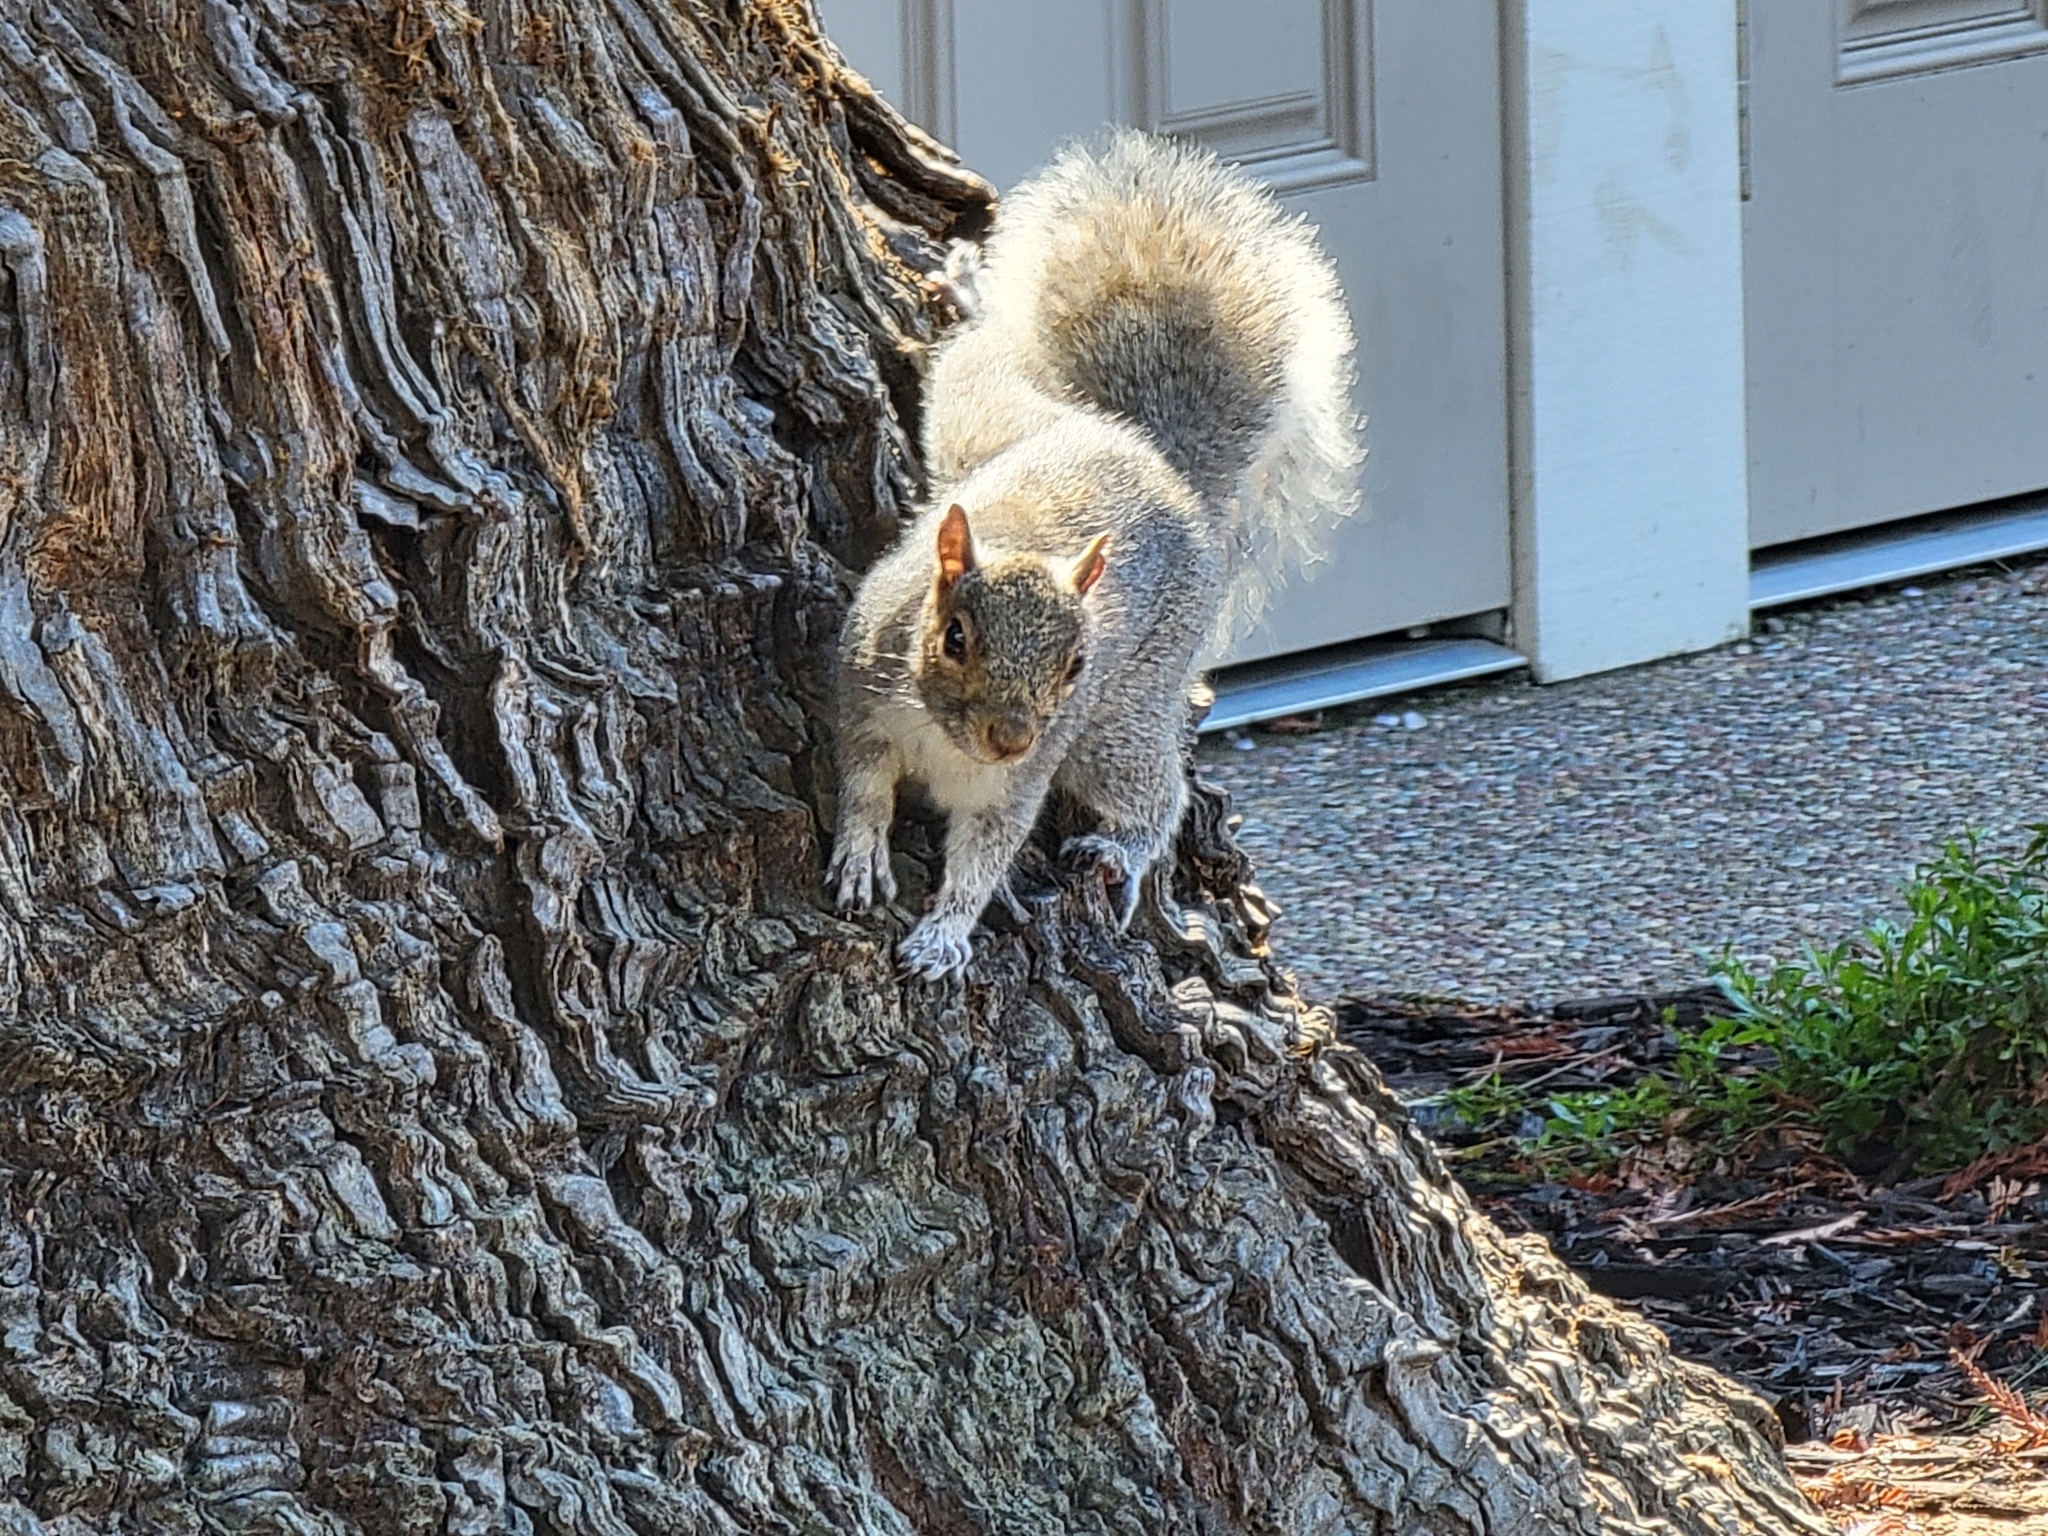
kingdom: Animalia
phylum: Chordata
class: Mammalia
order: Rodentia
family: Sciuridae
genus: Sciurus
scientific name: Sciurus carolinensis
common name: Eastern gray squirrel
